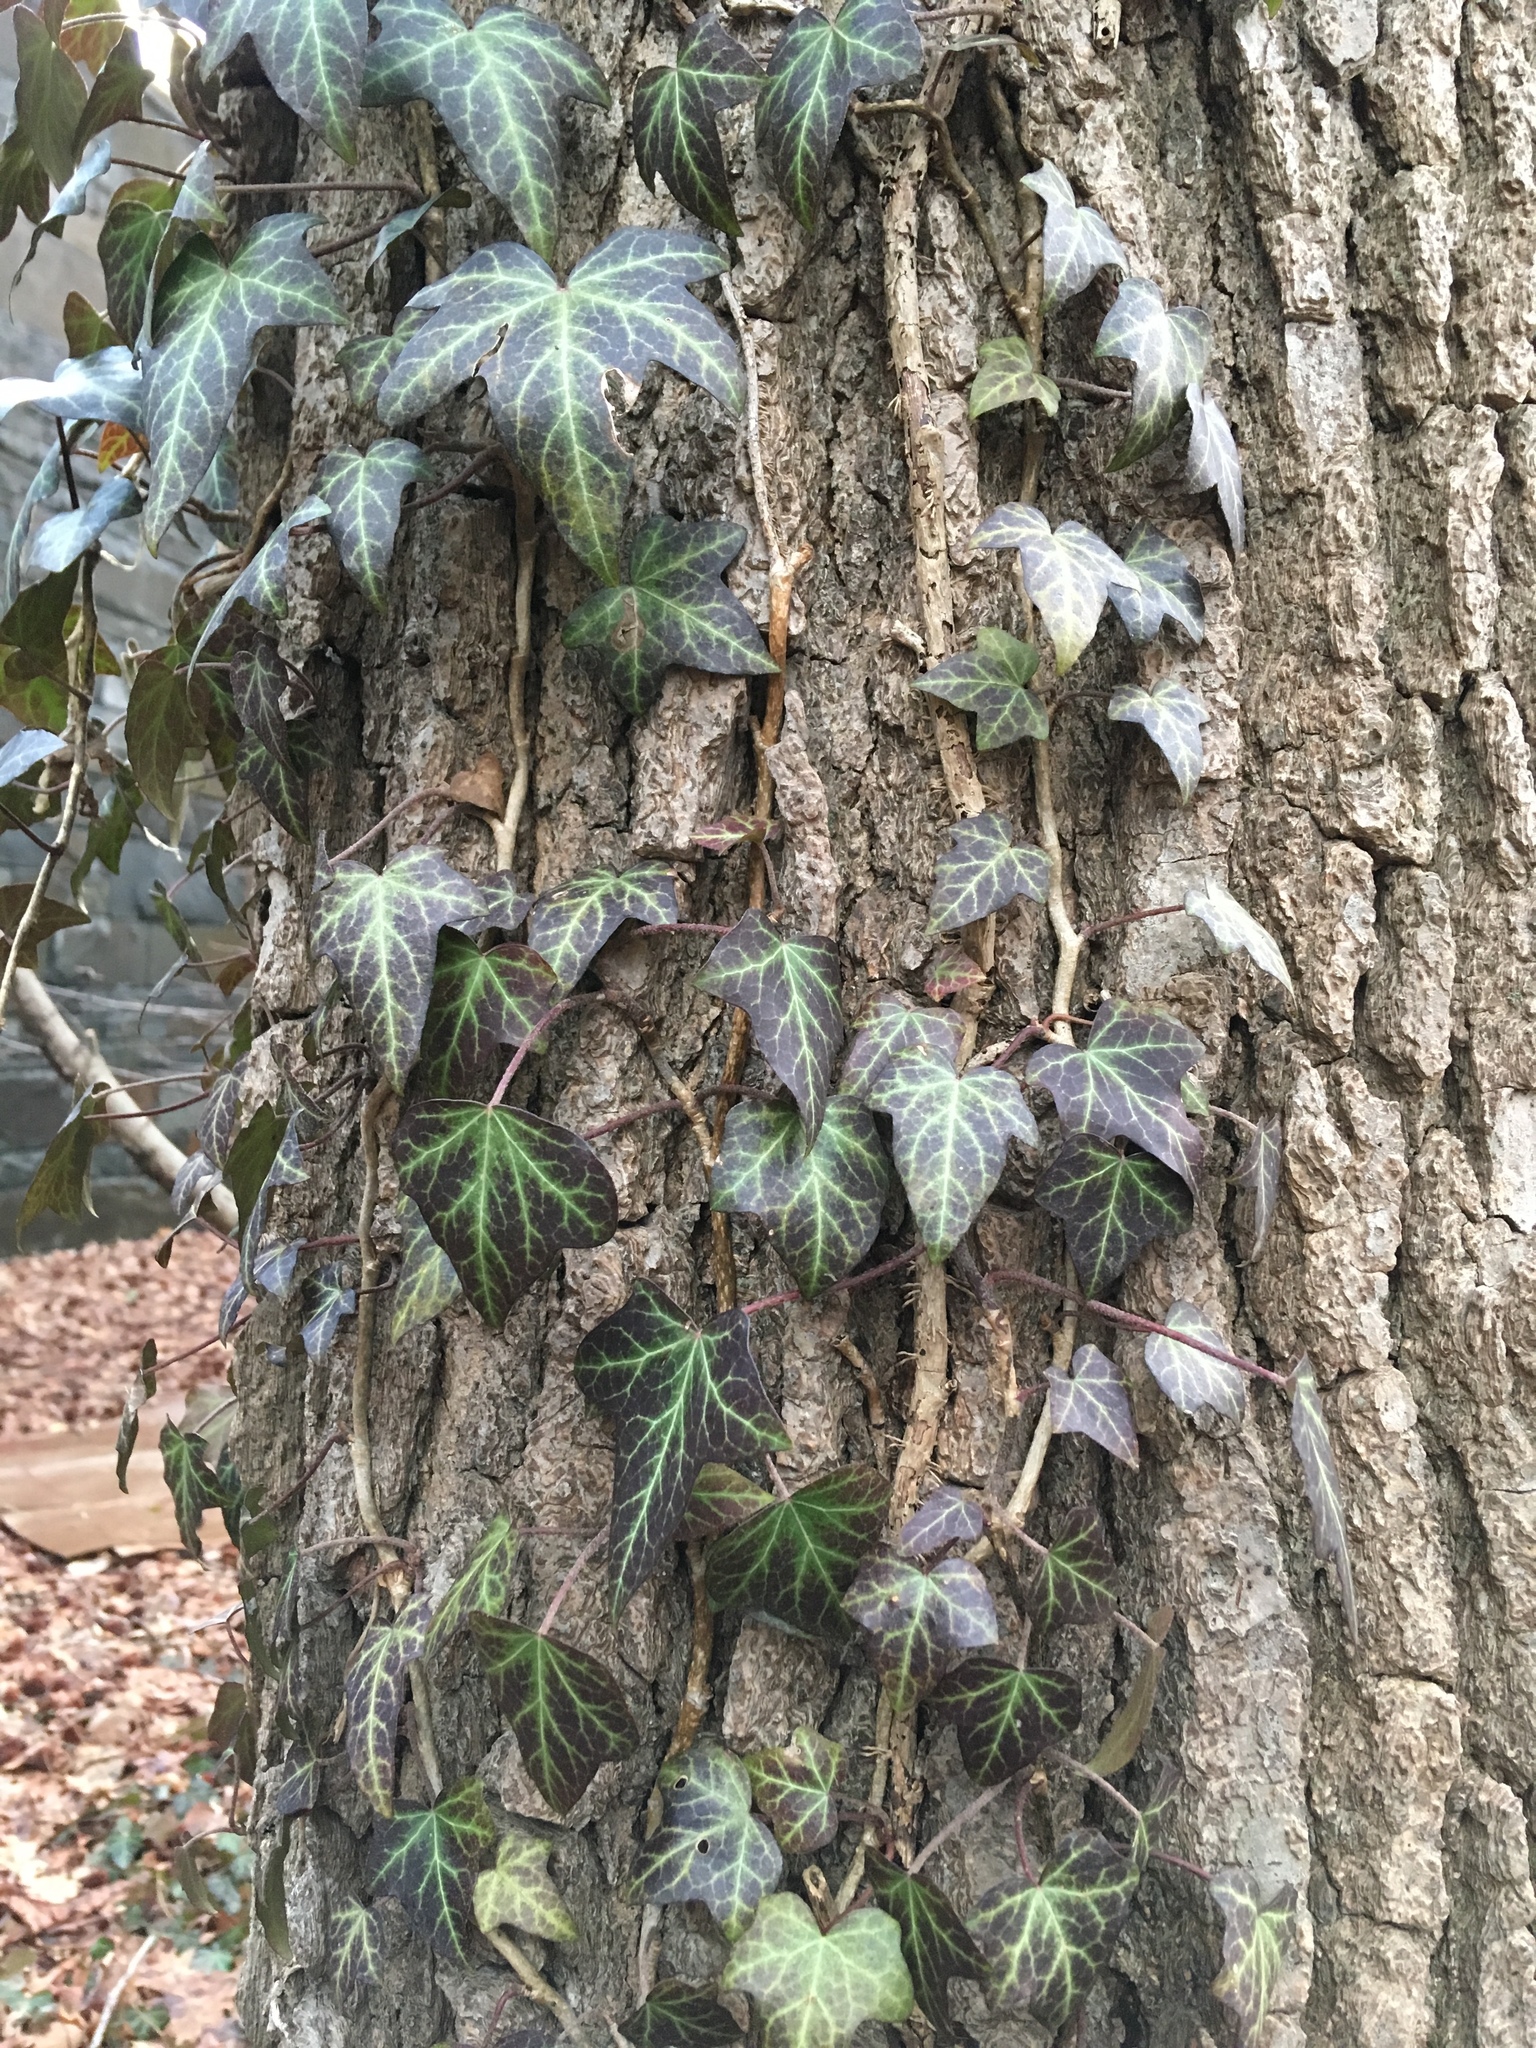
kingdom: Plantae
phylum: Tracheophyta
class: Magnoliopsida
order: Apiales
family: Araliaceae
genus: Hedera
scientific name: Hedera helix
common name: Ivy
